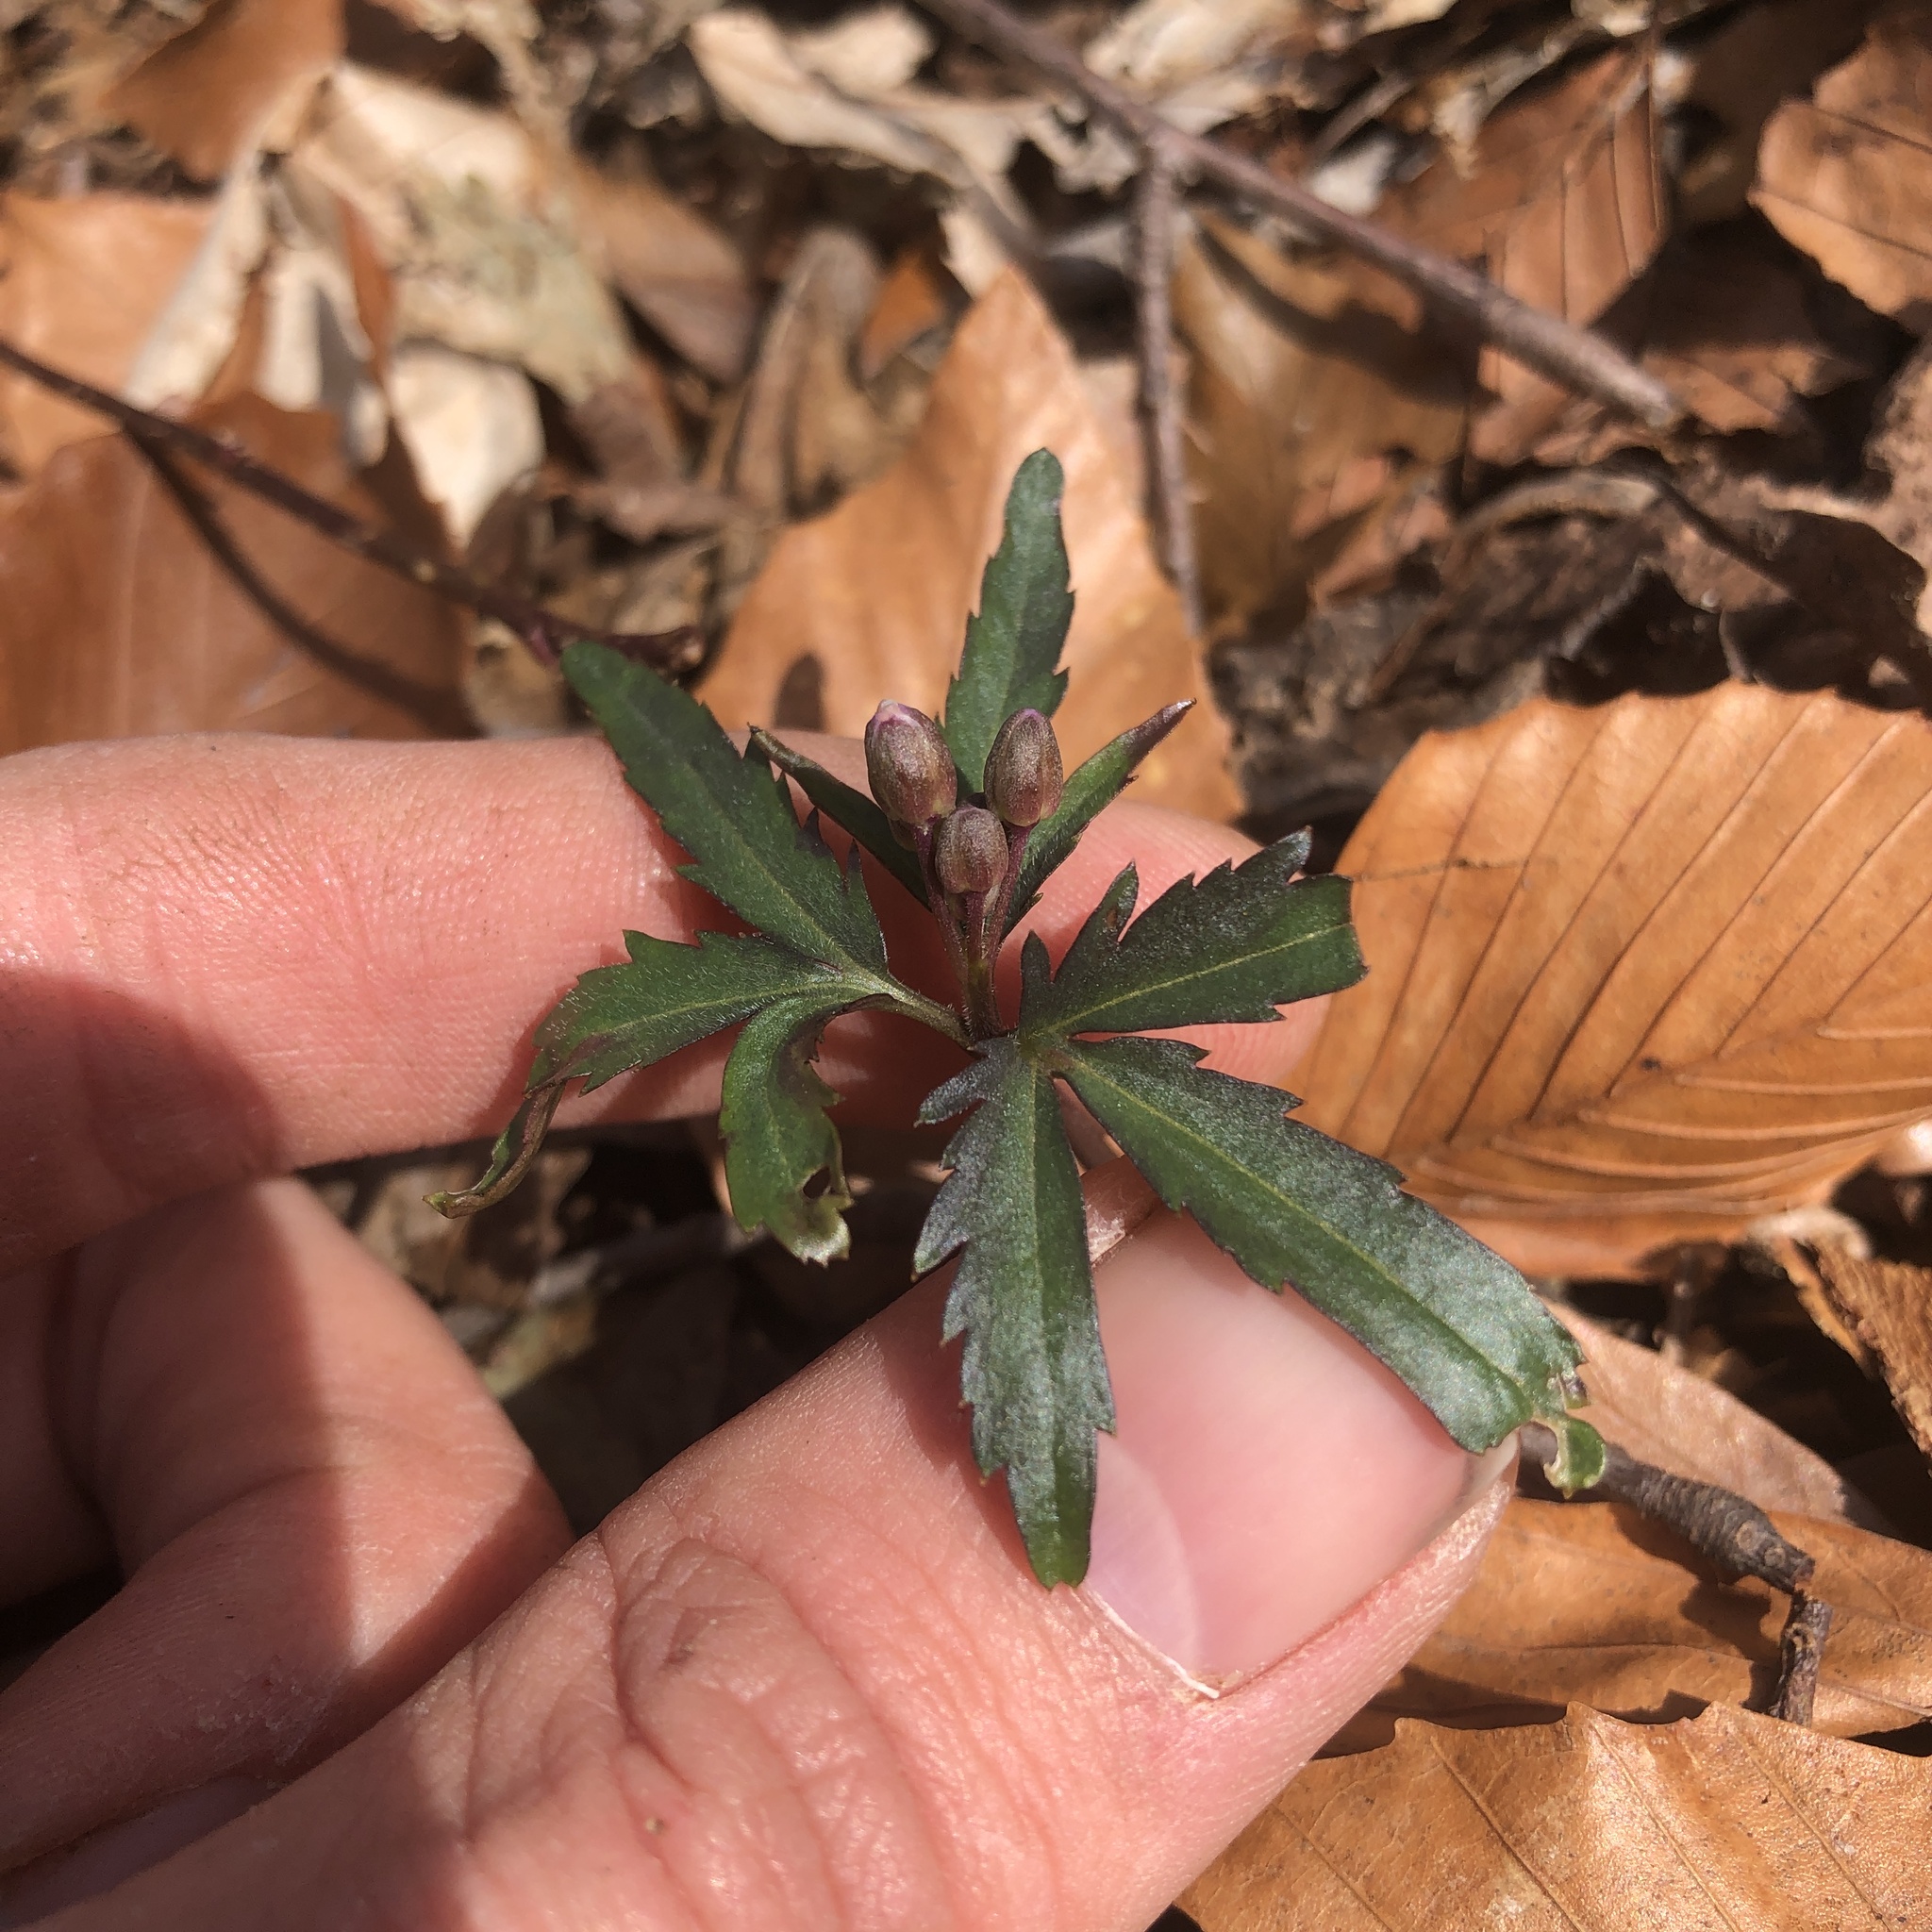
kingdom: Plantae
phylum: Tracheophyta
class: Magnoliopsida
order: Brassicales
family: Brassicaceae
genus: Cardamine
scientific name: Cardamine concatenata
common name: Cut-leaf toothcup
